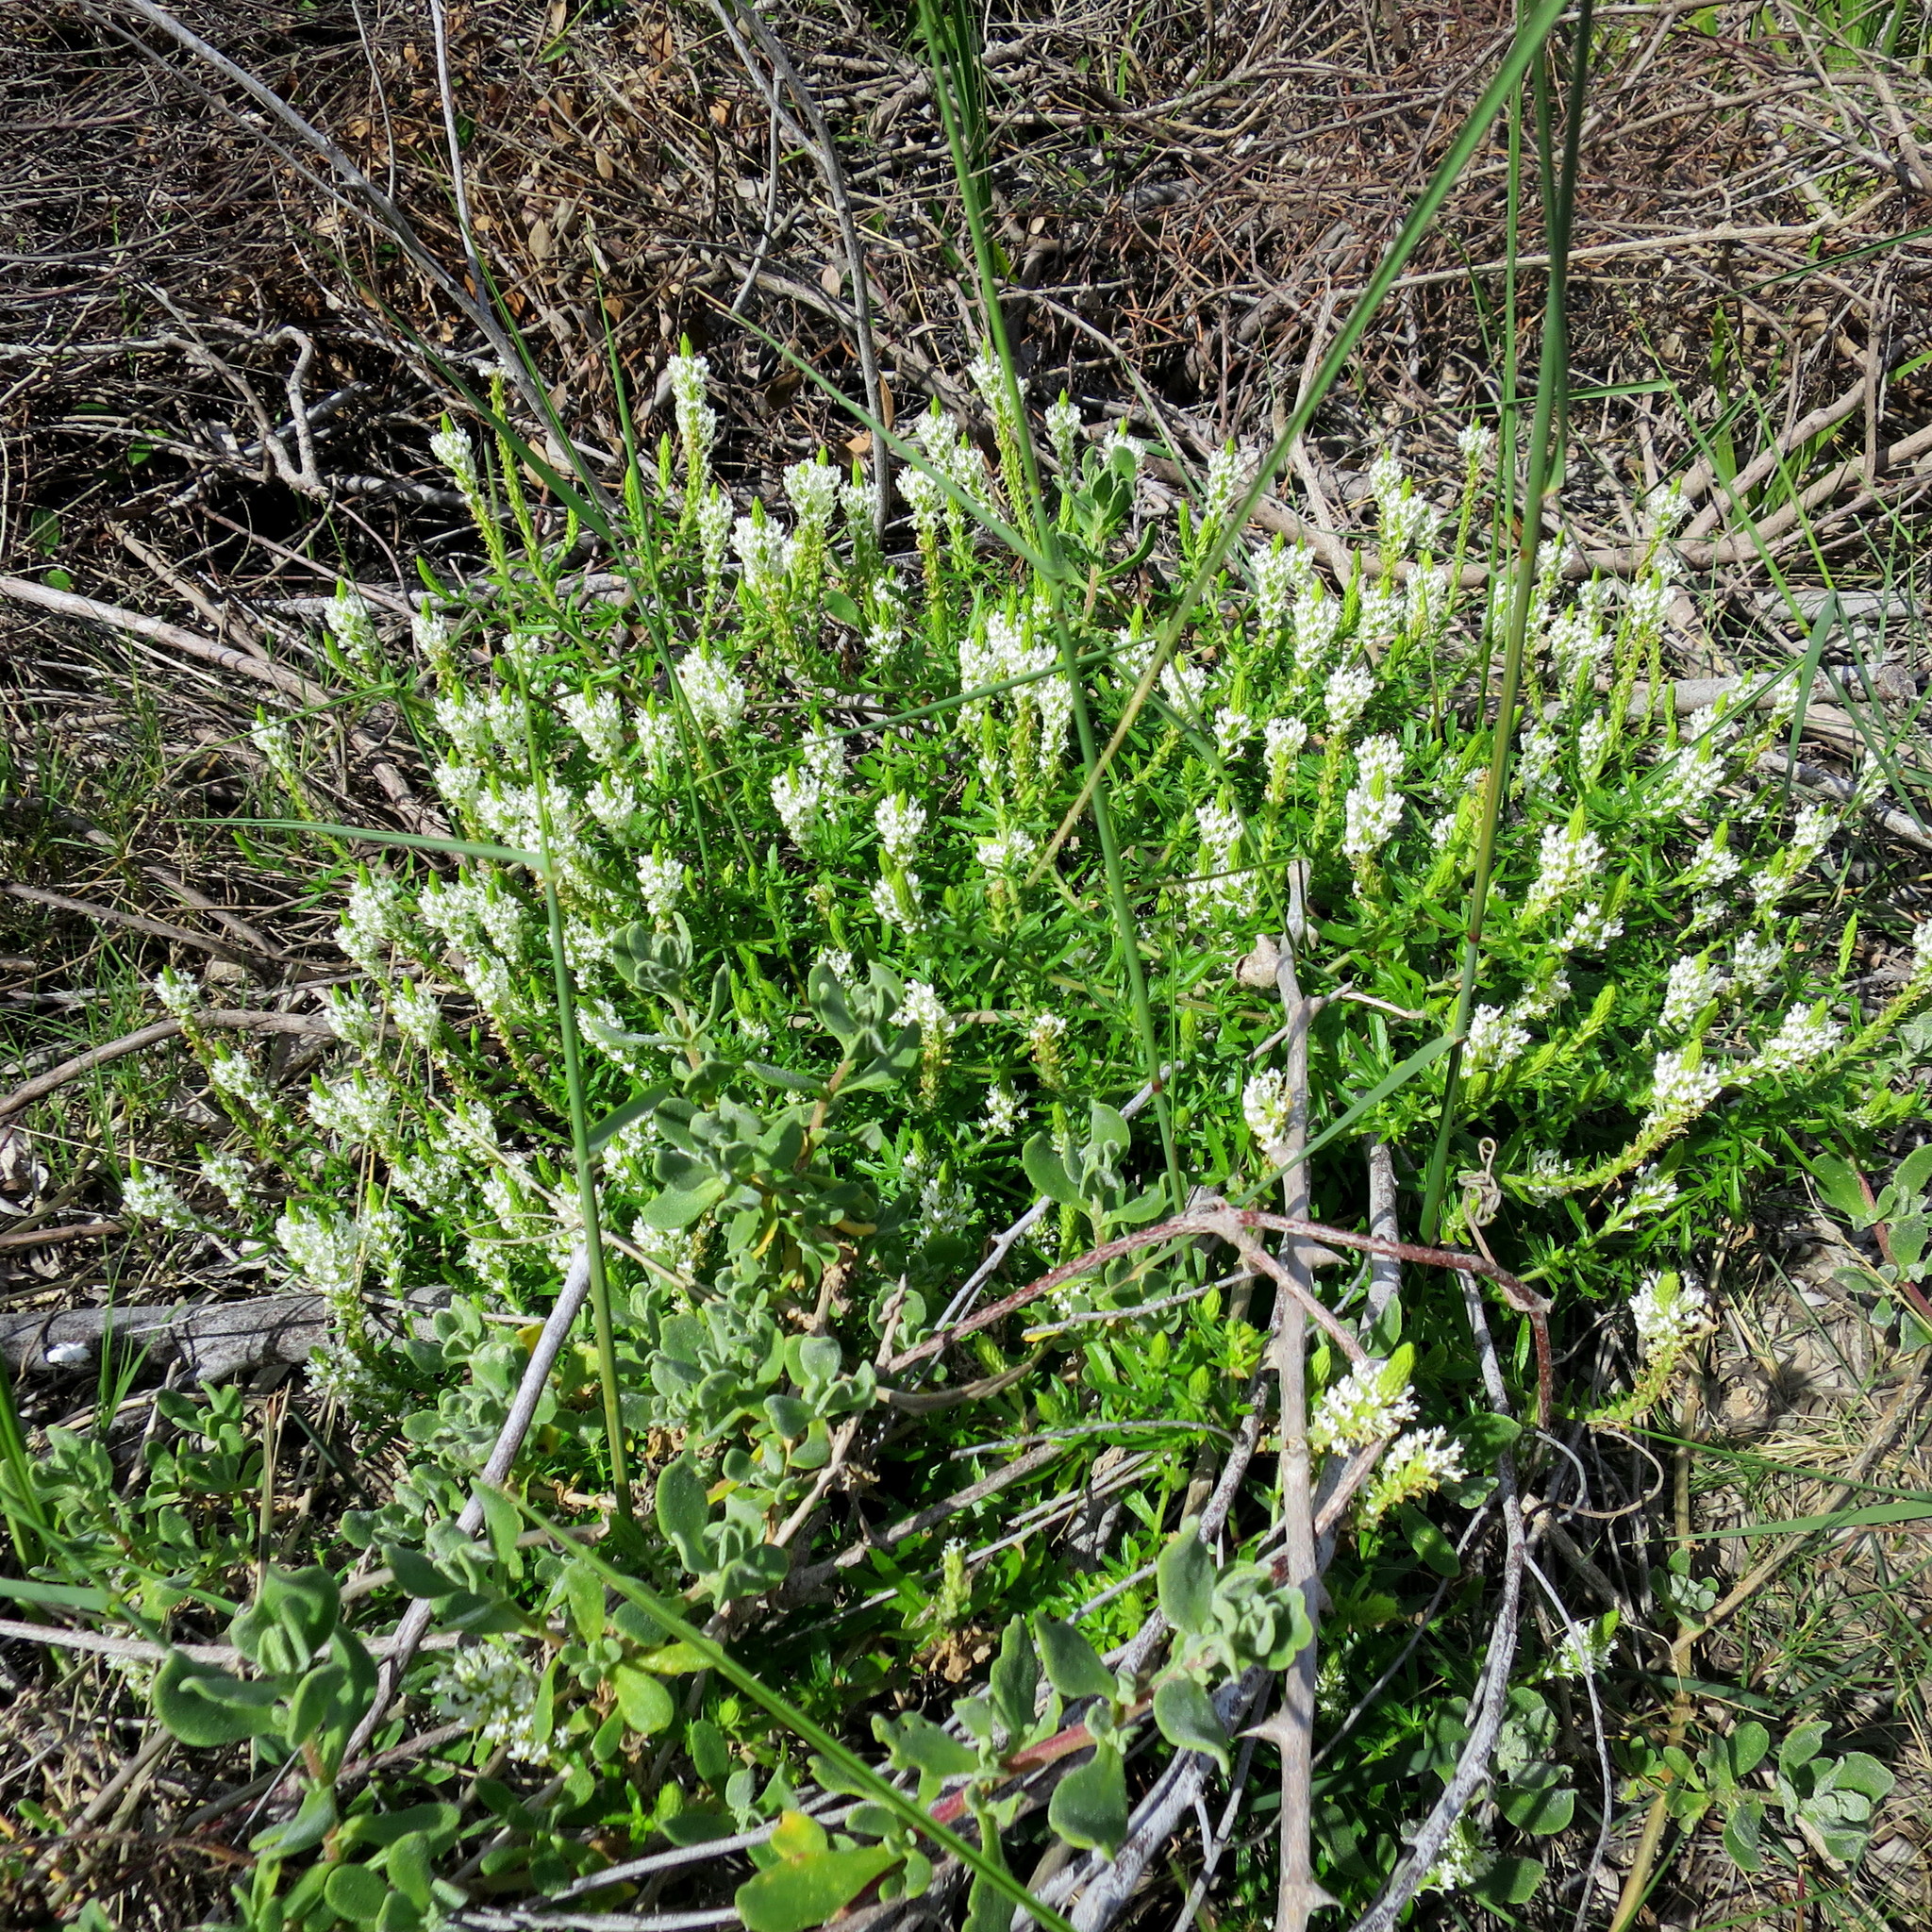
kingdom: Plantae
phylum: Tracheophyta
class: Magnoliopsida
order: Lamiales
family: Scrophulariaceae
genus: Dischisma
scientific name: Dischisma ciliatum
